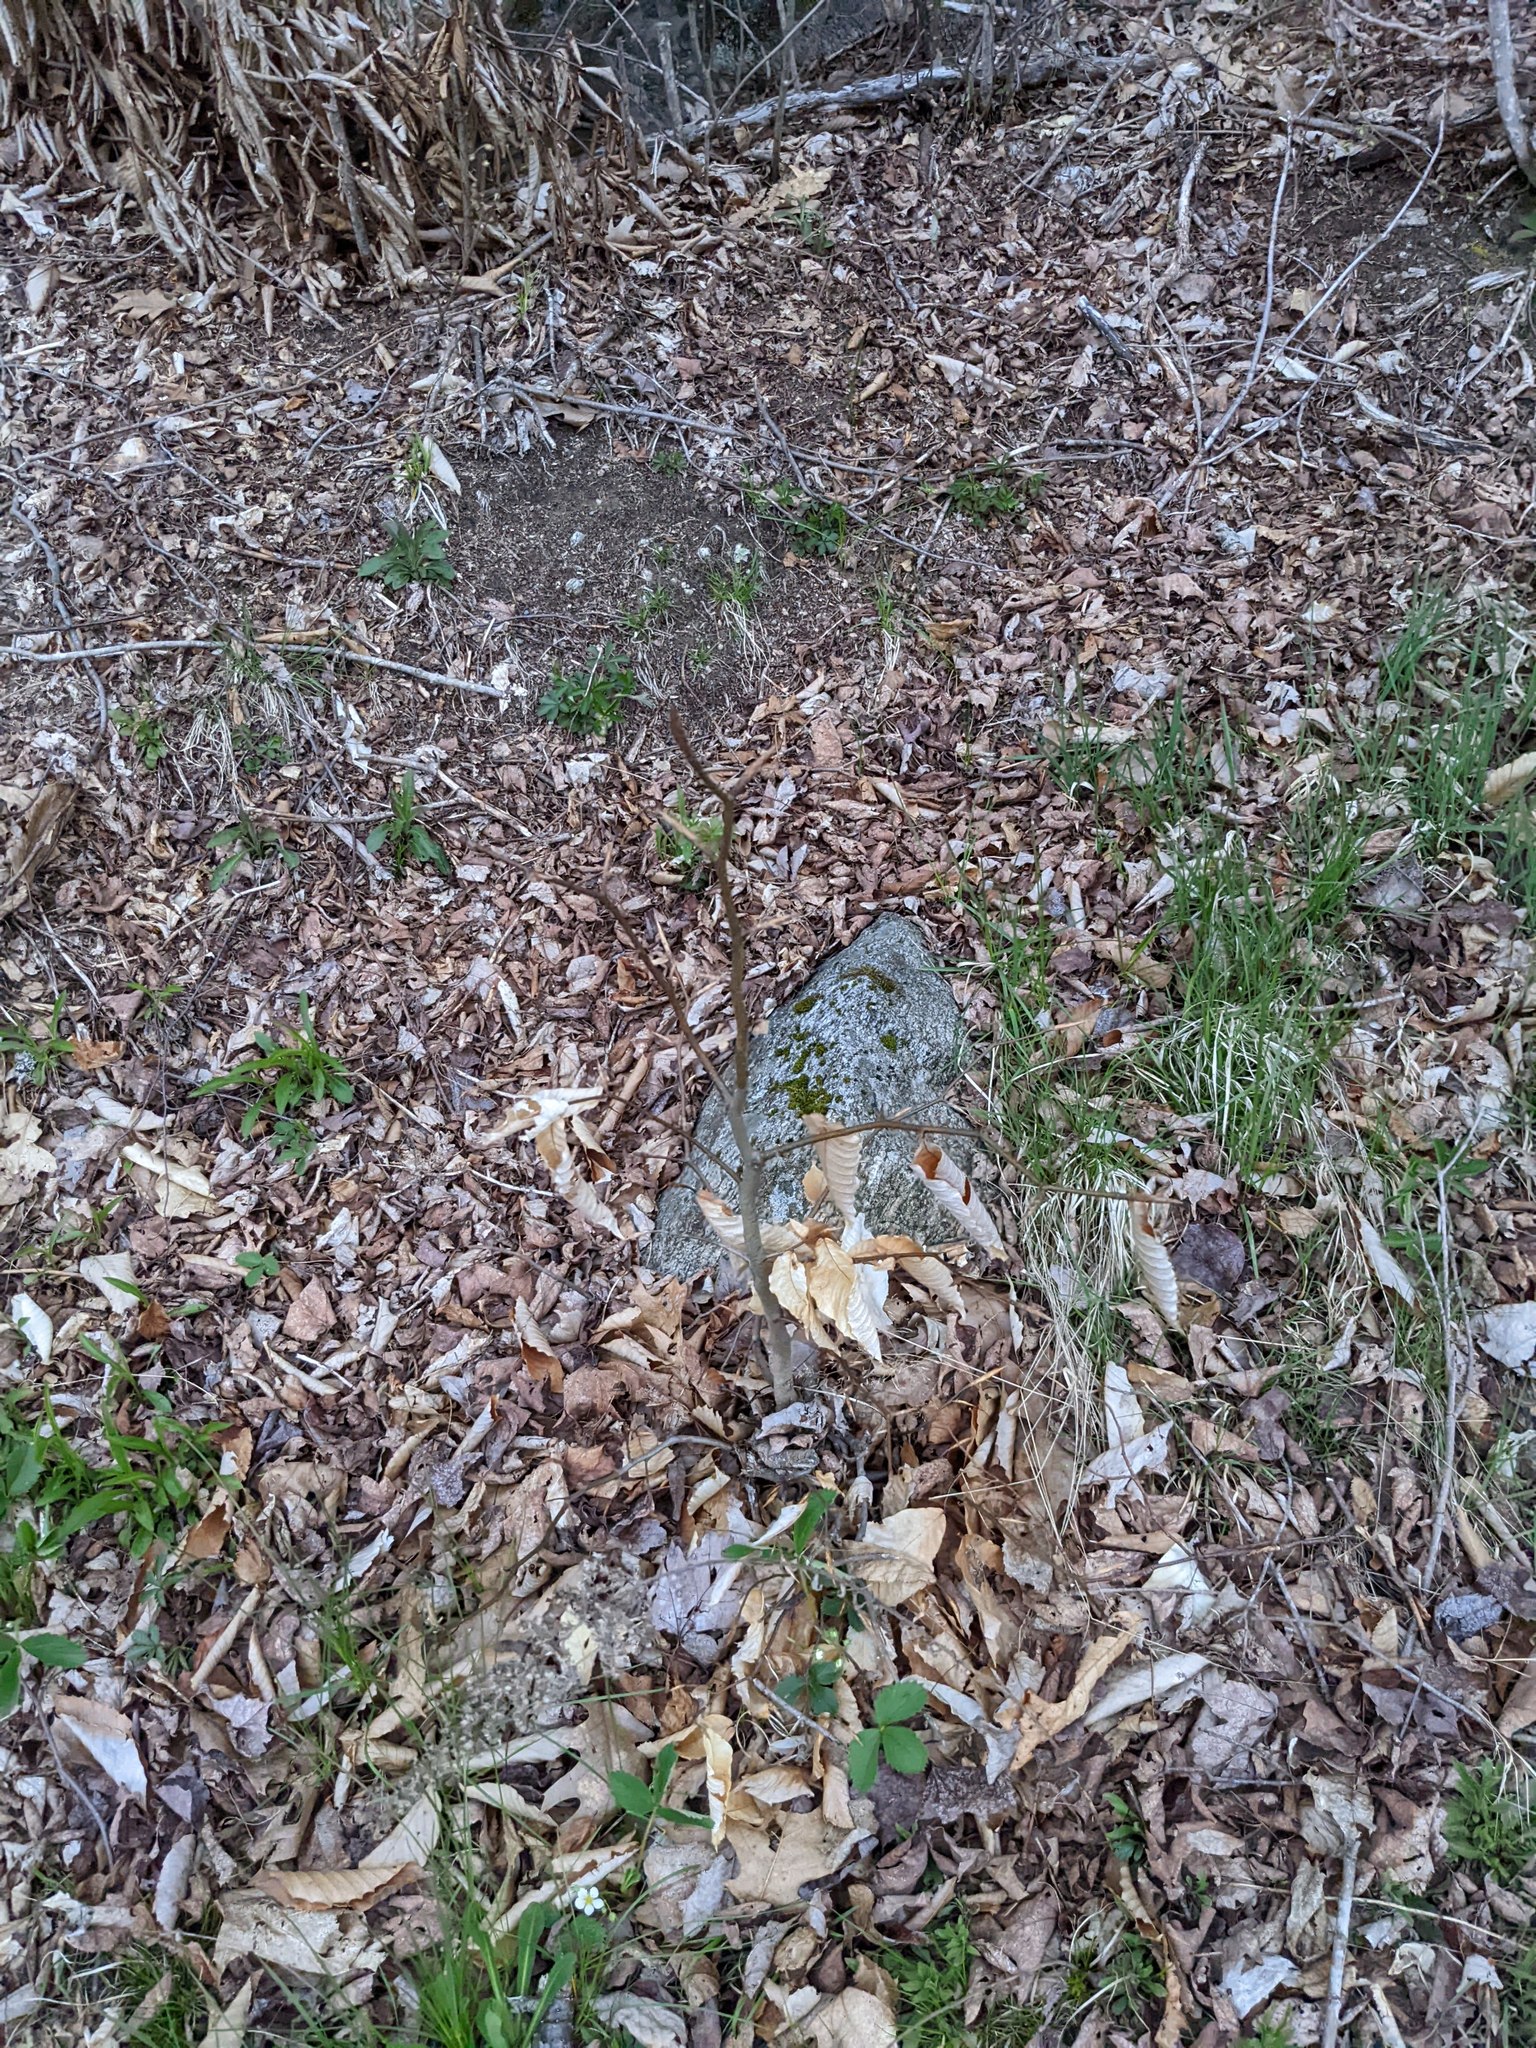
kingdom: Plantae
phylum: Tracheophyta
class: Magnoliopsida
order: Fagales
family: Fagaceae
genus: Fagus
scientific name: Fagus grandifolia
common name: American beech
